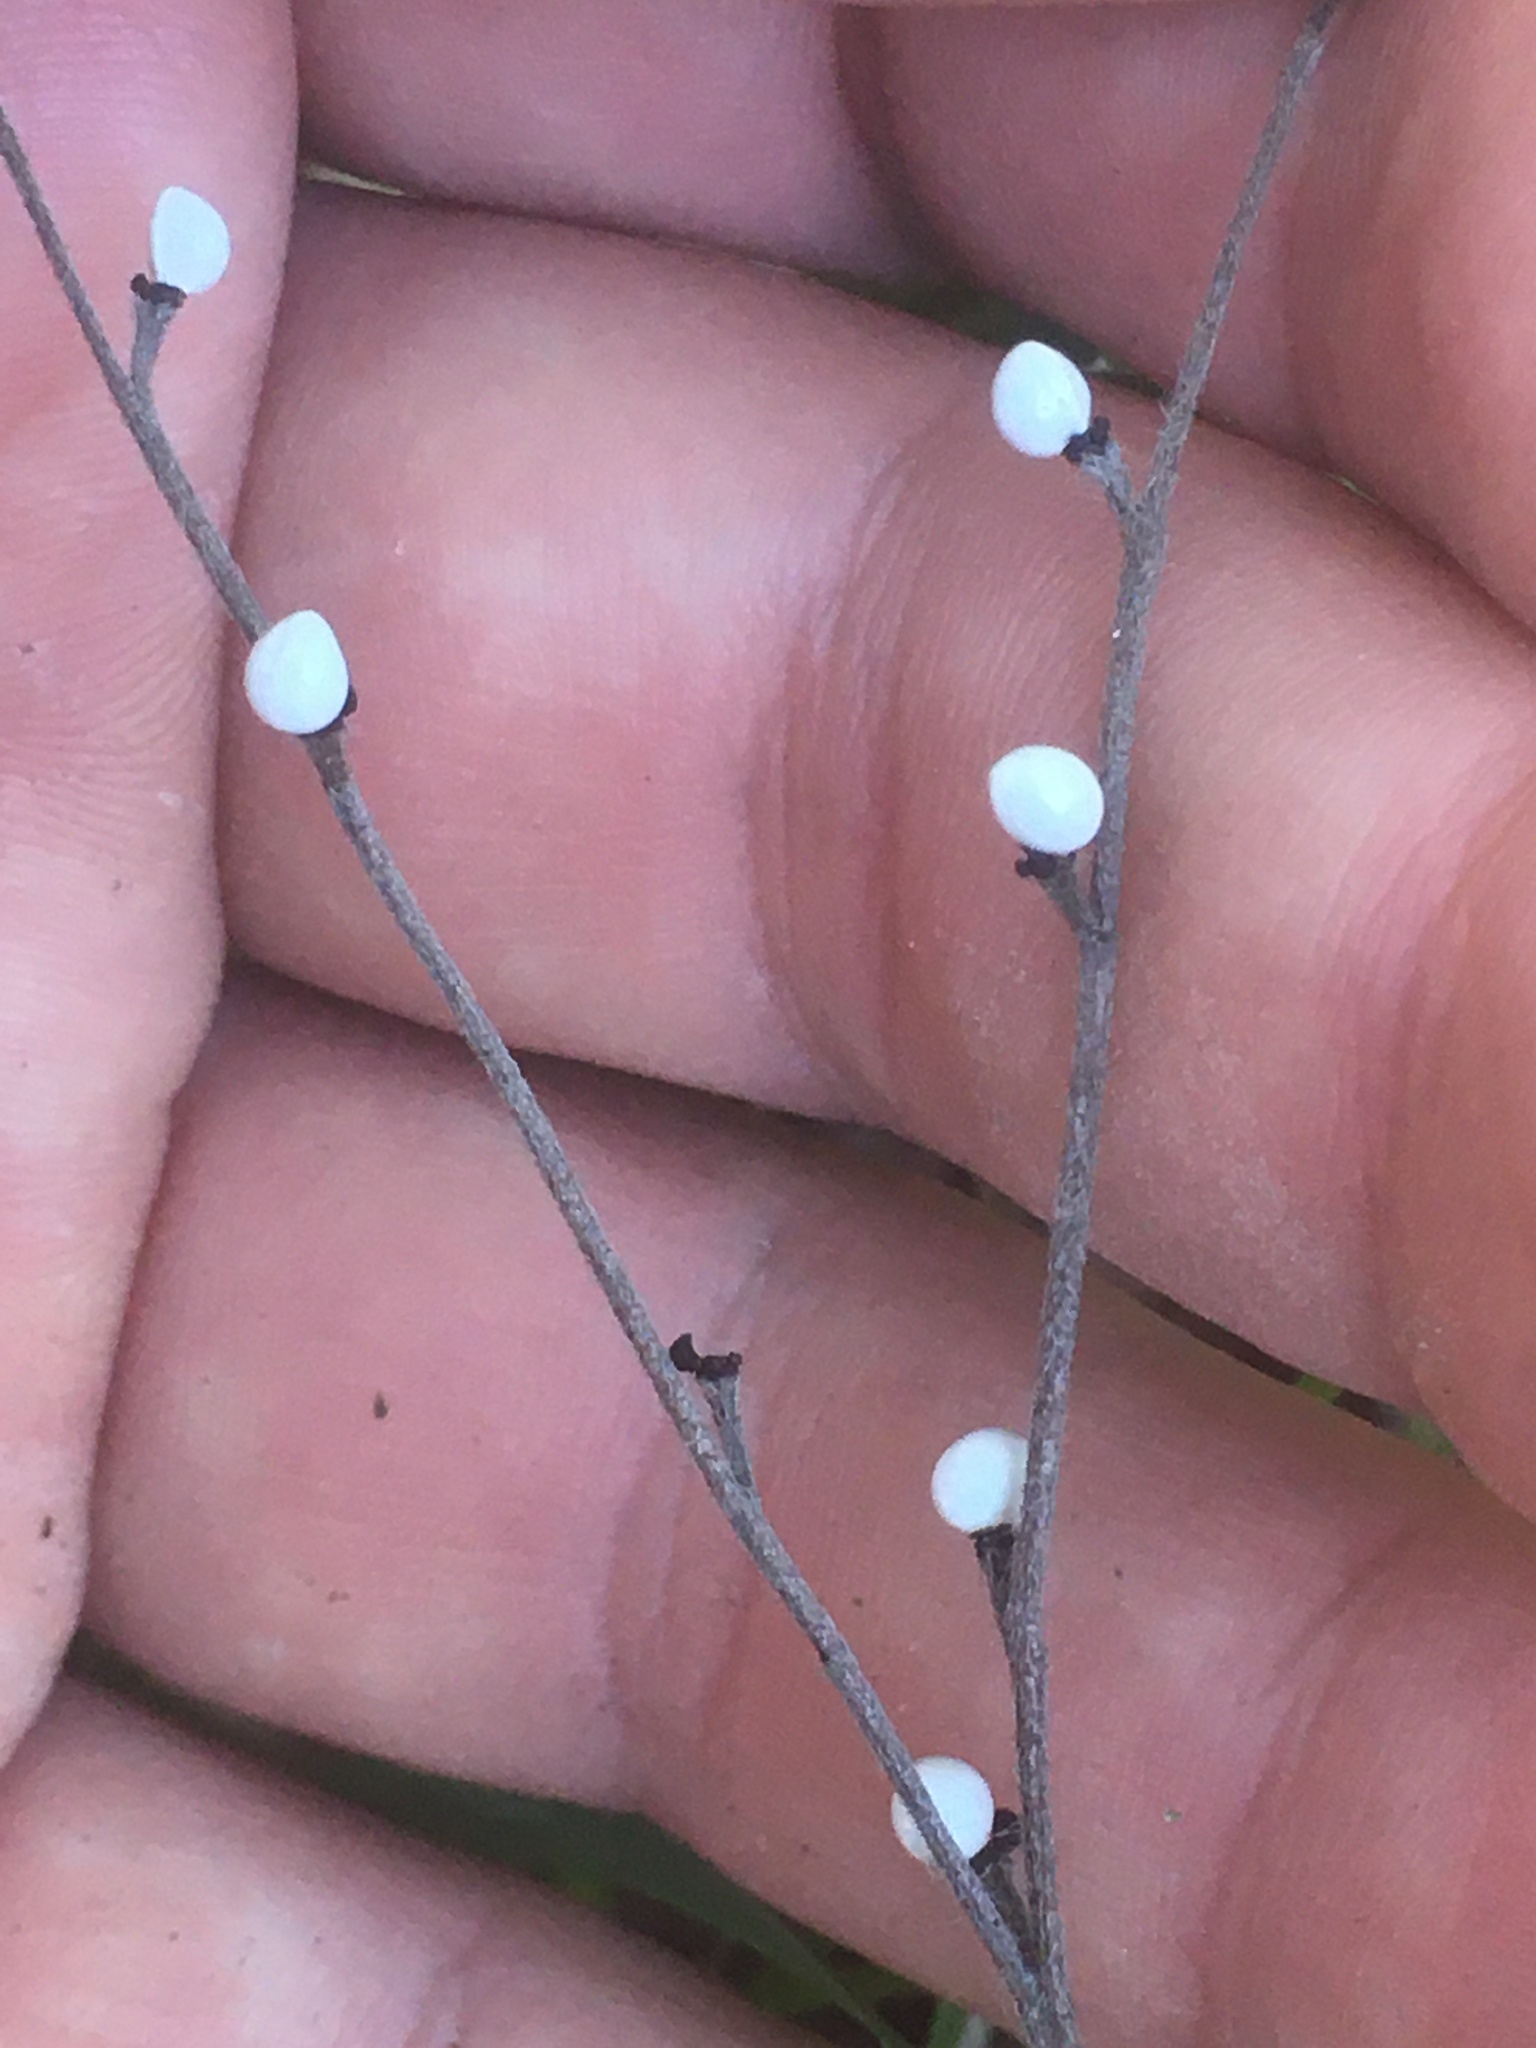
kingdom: Plantae
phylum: Tracheophyta
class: Magnoliopsida
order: Boraginales
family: Boraginaceae
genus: Lithospermum
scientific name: Lithospermum officinale
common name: Common gromwell
